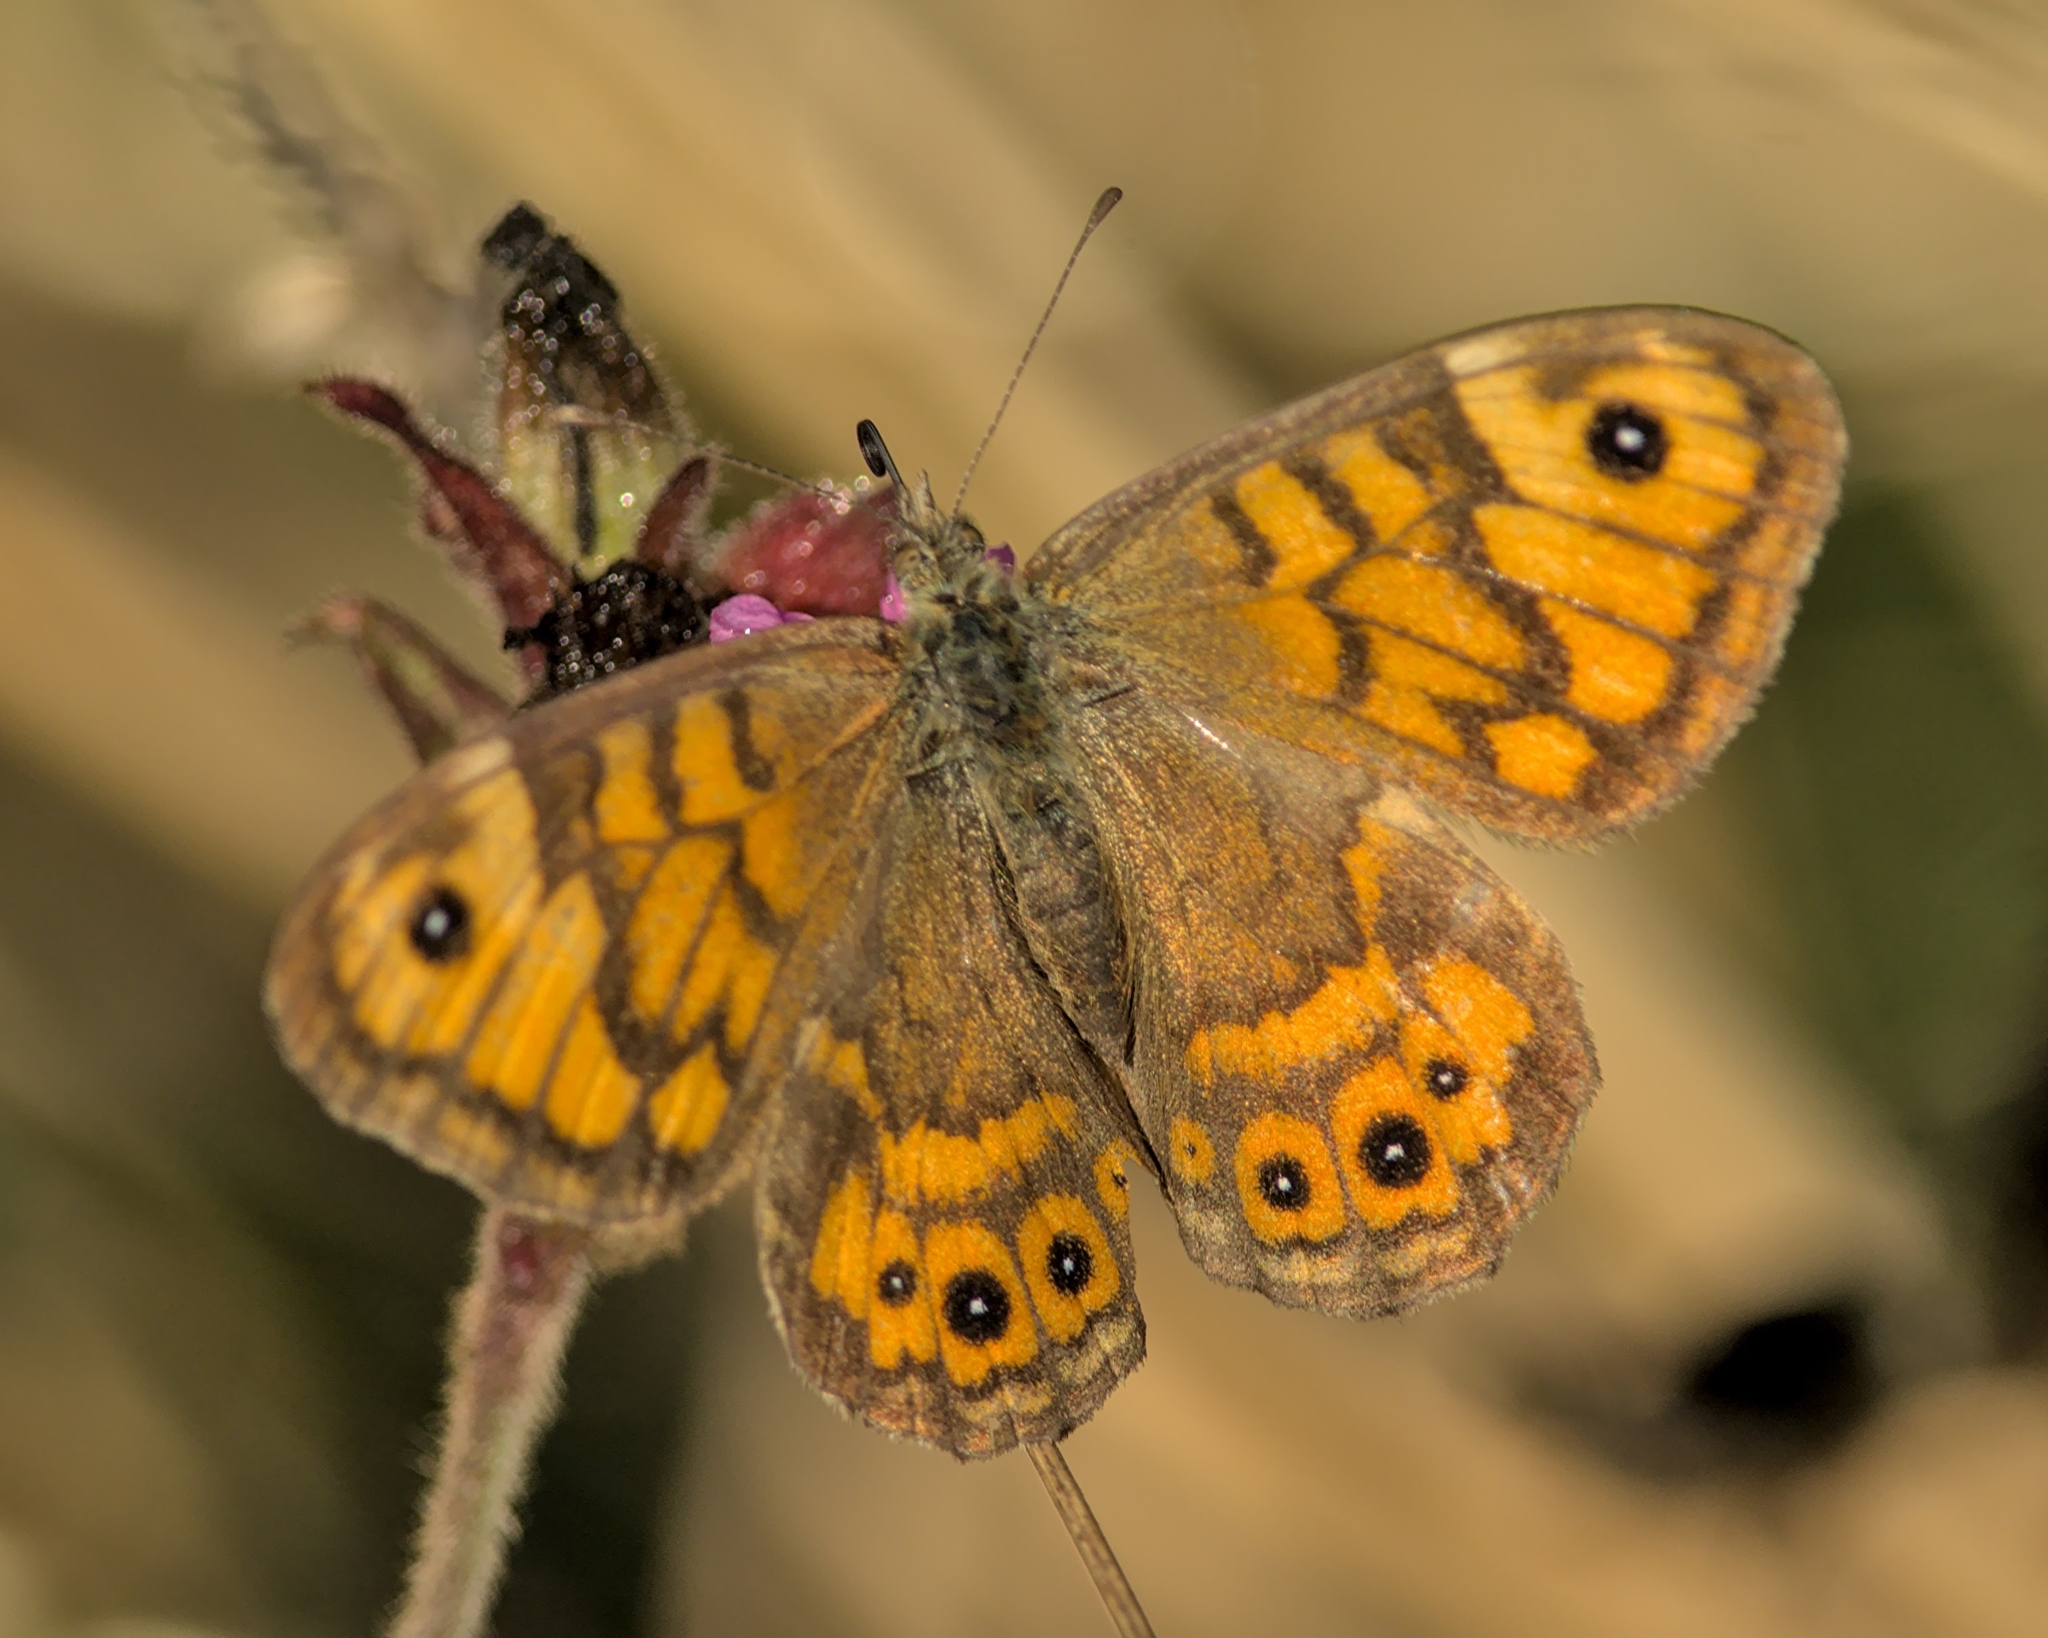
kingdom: Animalia
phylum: Arthropoda
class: Insecta
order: Lepidoptera
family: Nymphalidae
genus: Pararge
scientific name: Pararge Lasiommata megera
